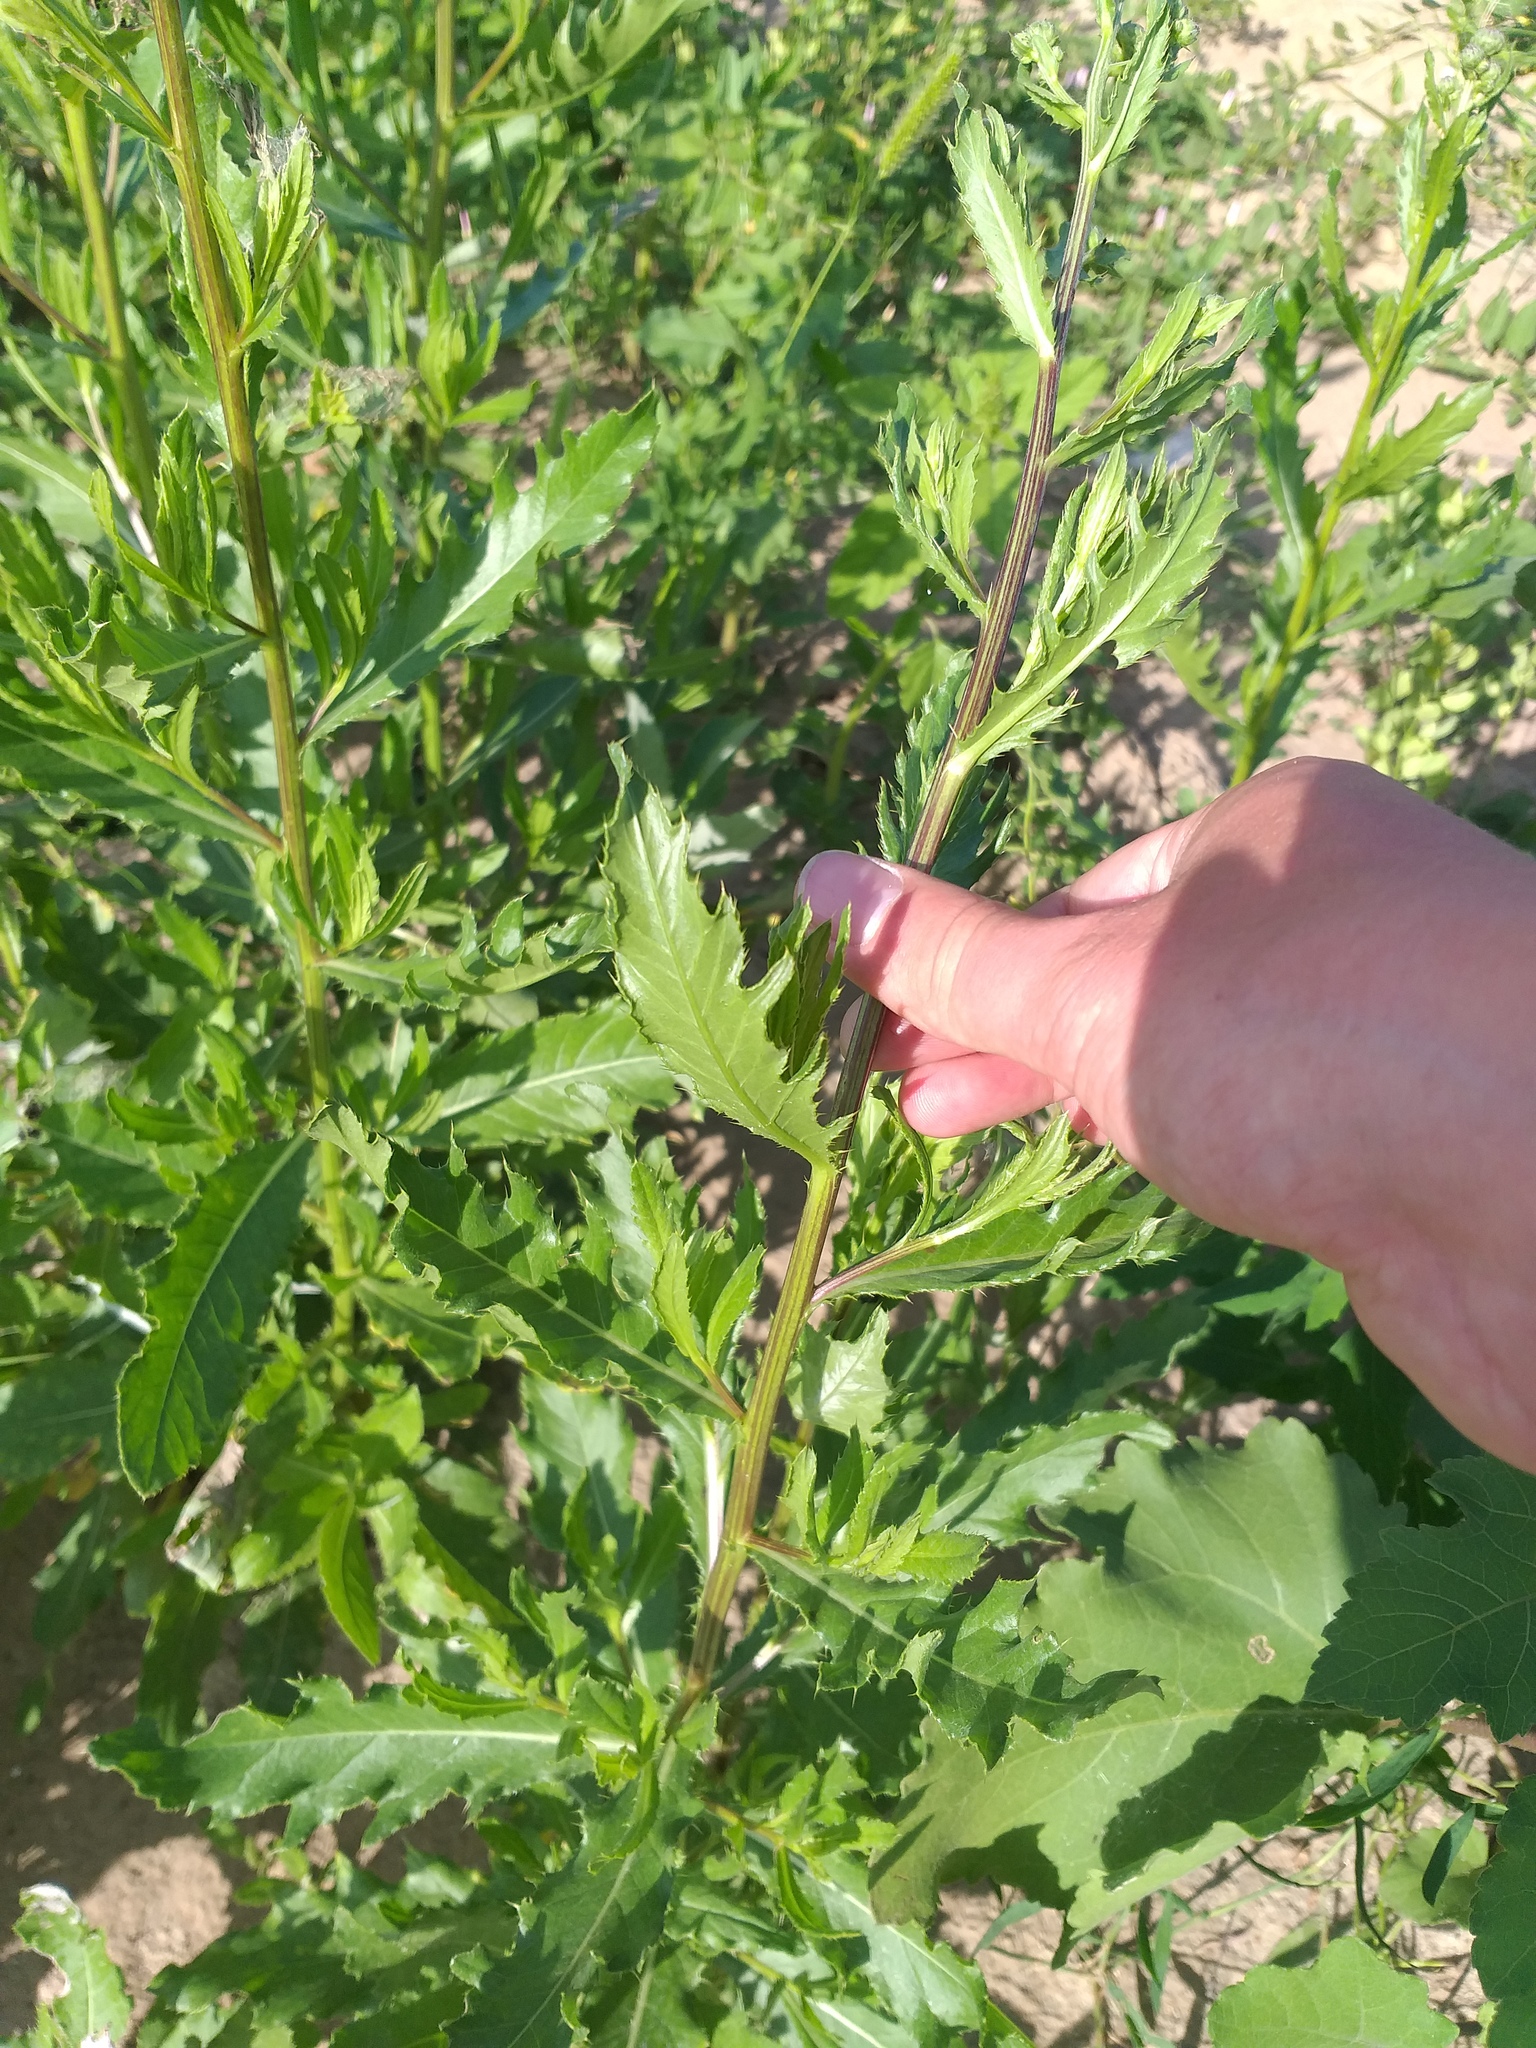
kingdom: Plantae
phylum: Tracheophyta
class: Magnoliopsida
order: Asterales
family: Asteraceae
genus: Cirsium
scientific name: Cirsium arvense
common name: Creeping thistle
